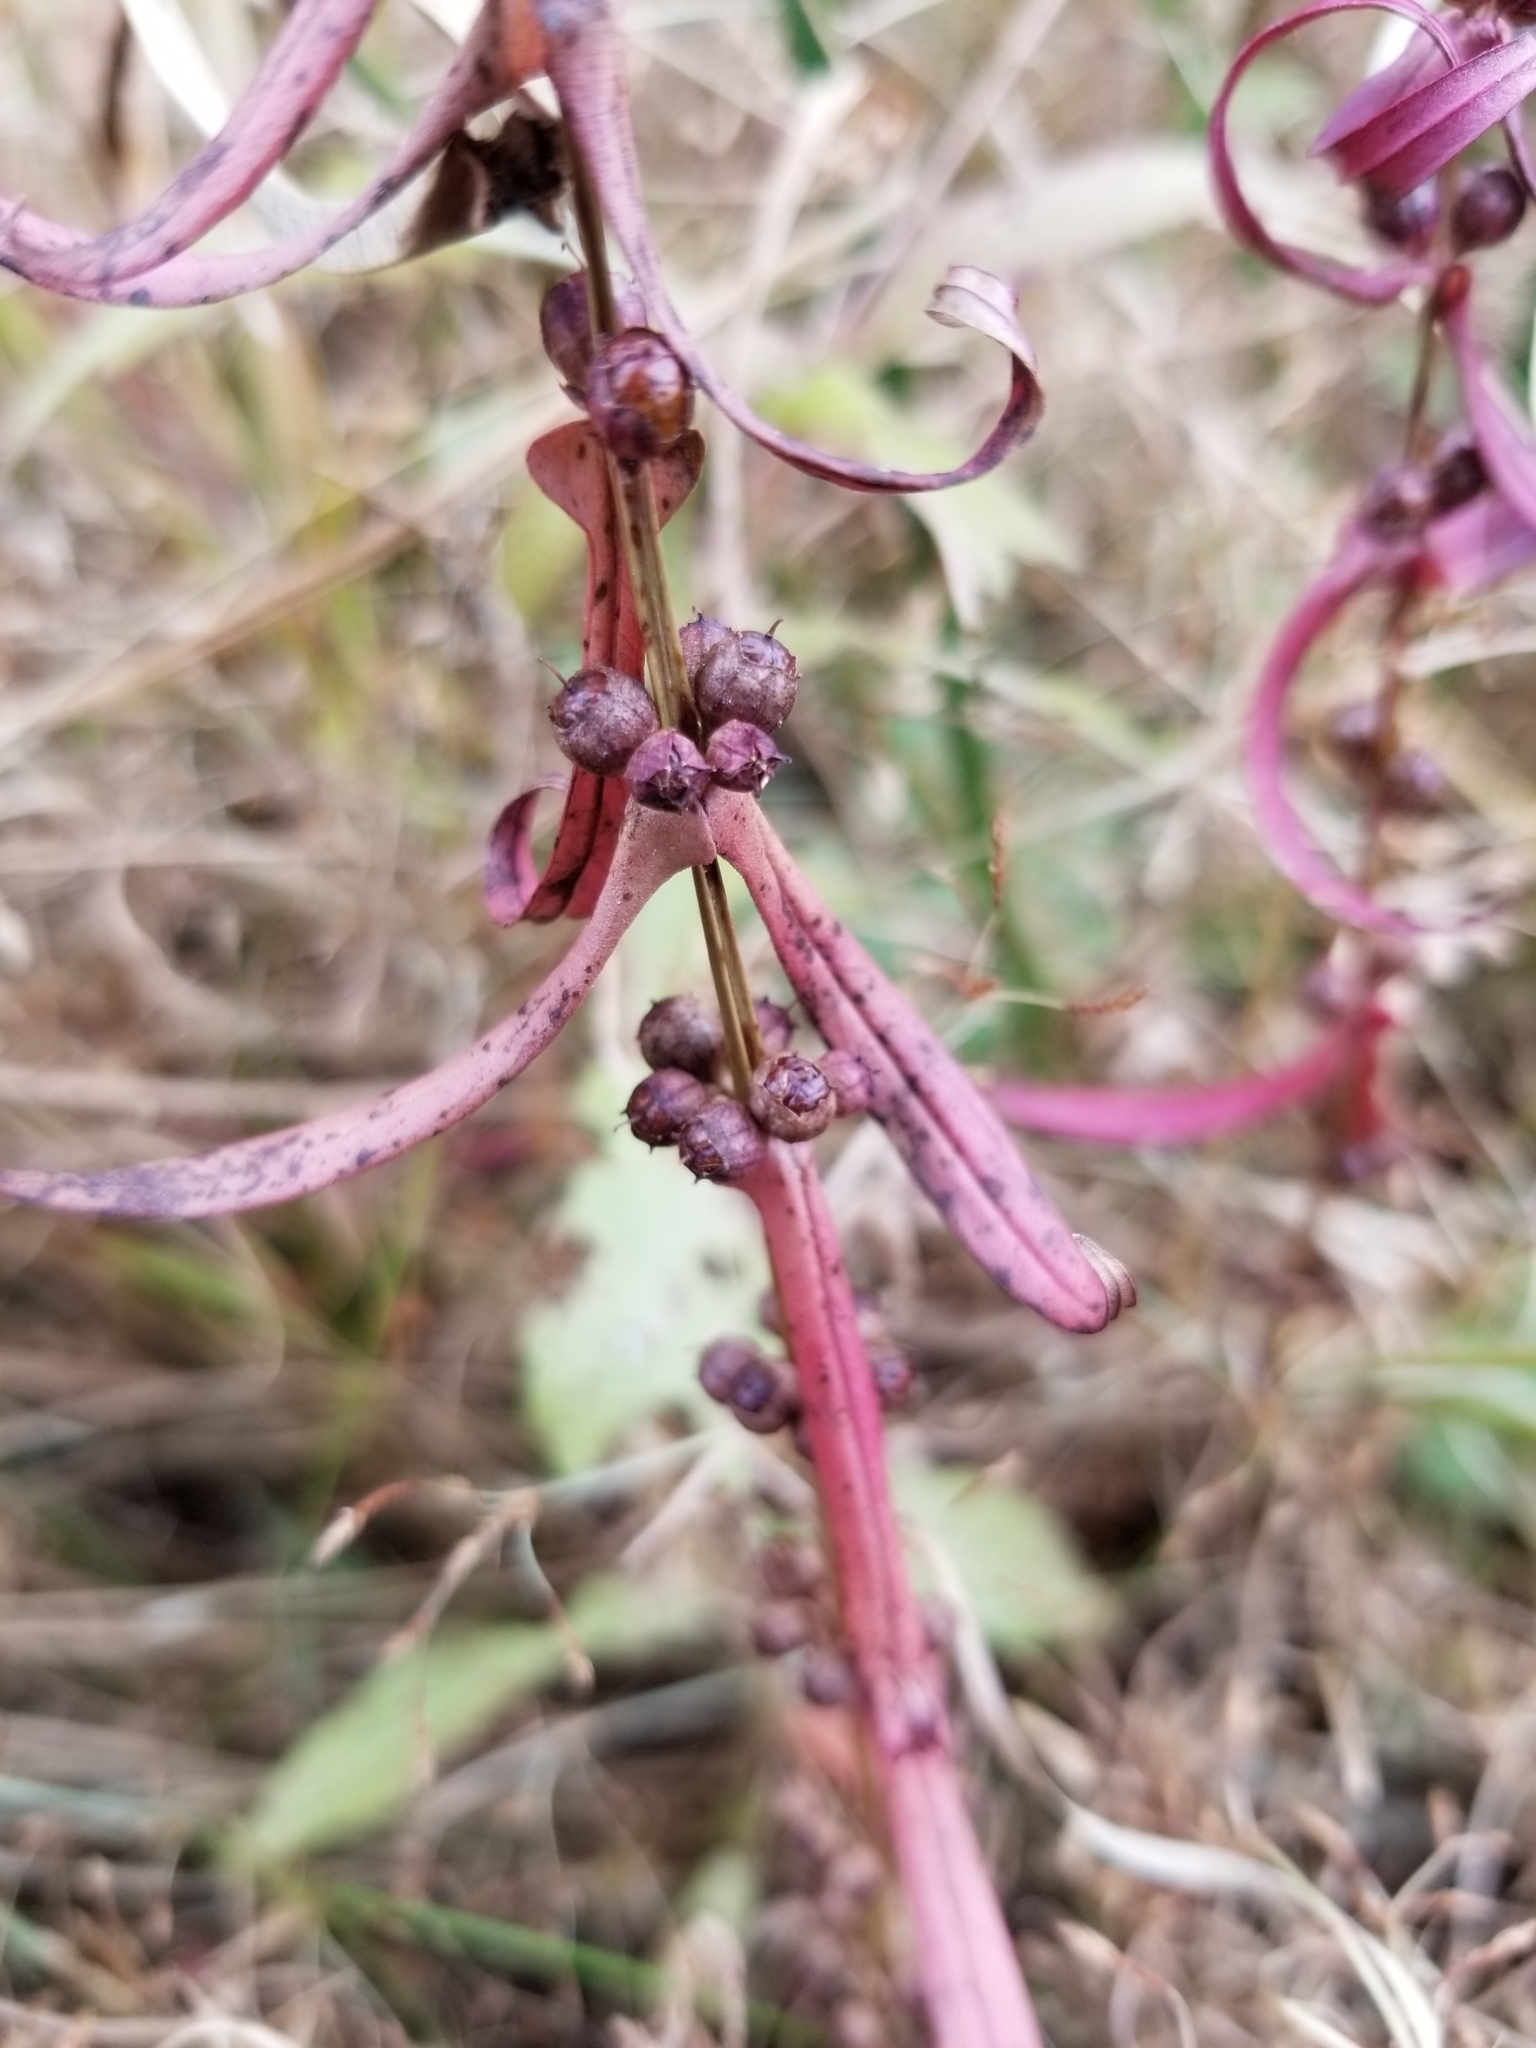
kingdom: Plantae
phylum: Tracheophyta
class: Magnoliopsida
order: Myrtales
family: Lythraceae
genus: Ammannia
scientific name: Ammannia coccinea
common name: Valley redstem
